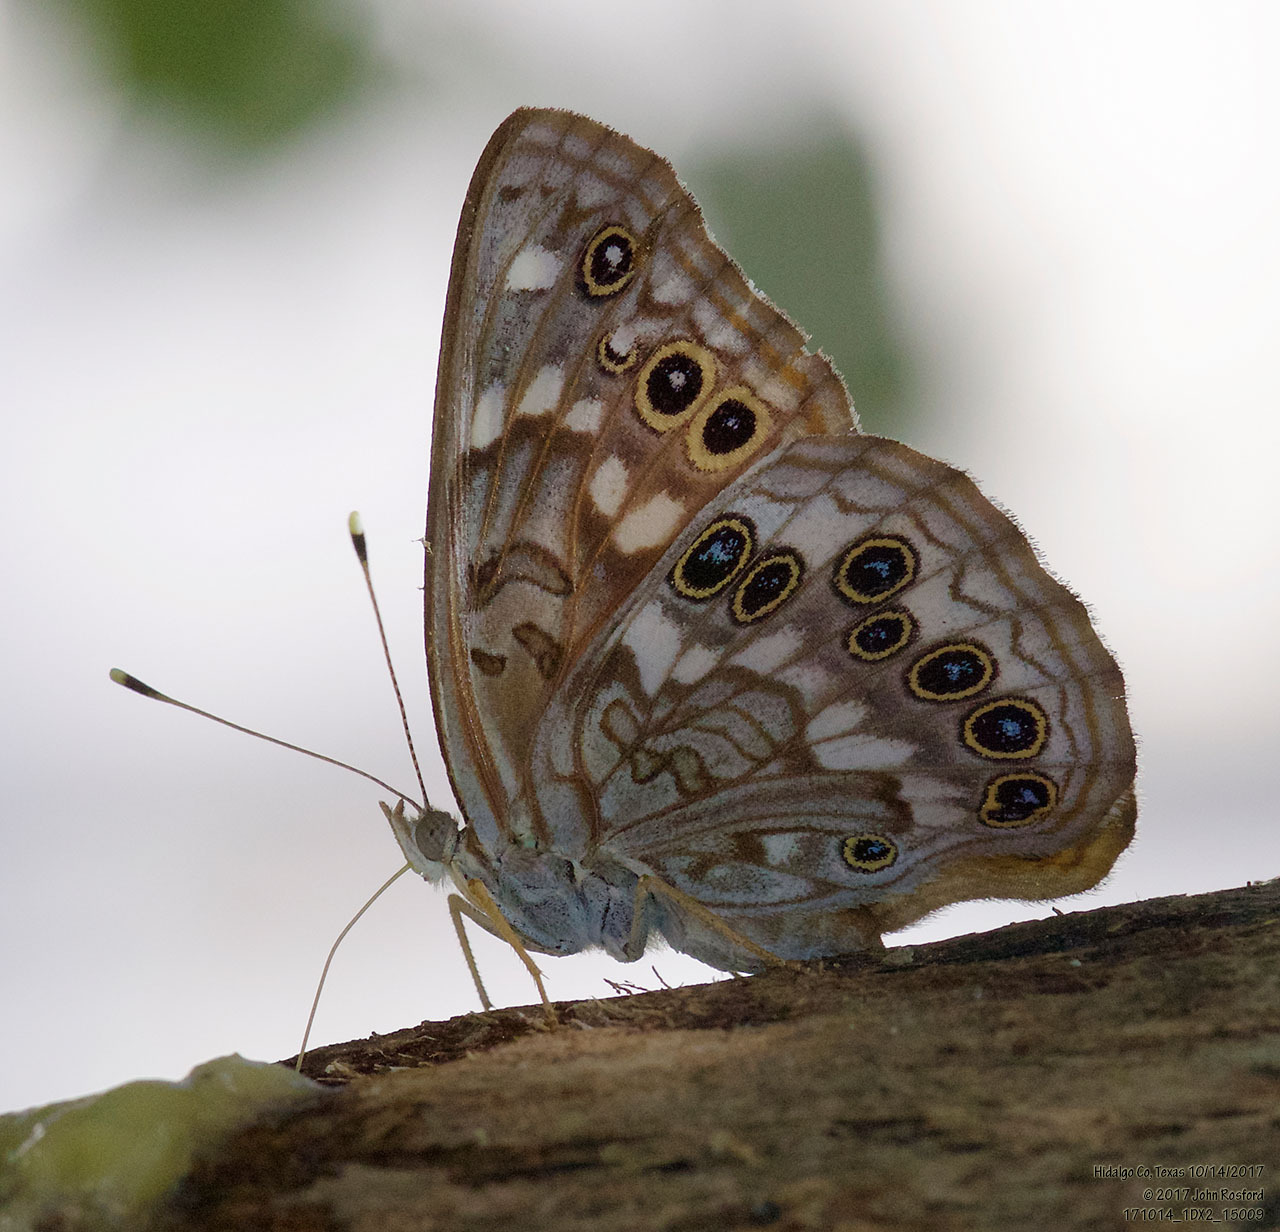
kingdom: Animalia
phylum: Arthropoda
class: Insecta
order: Lepidoptera
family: Nymphalidae
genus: Asterocampa
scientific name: Asterocampa celtis
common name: Hackberry emperor
